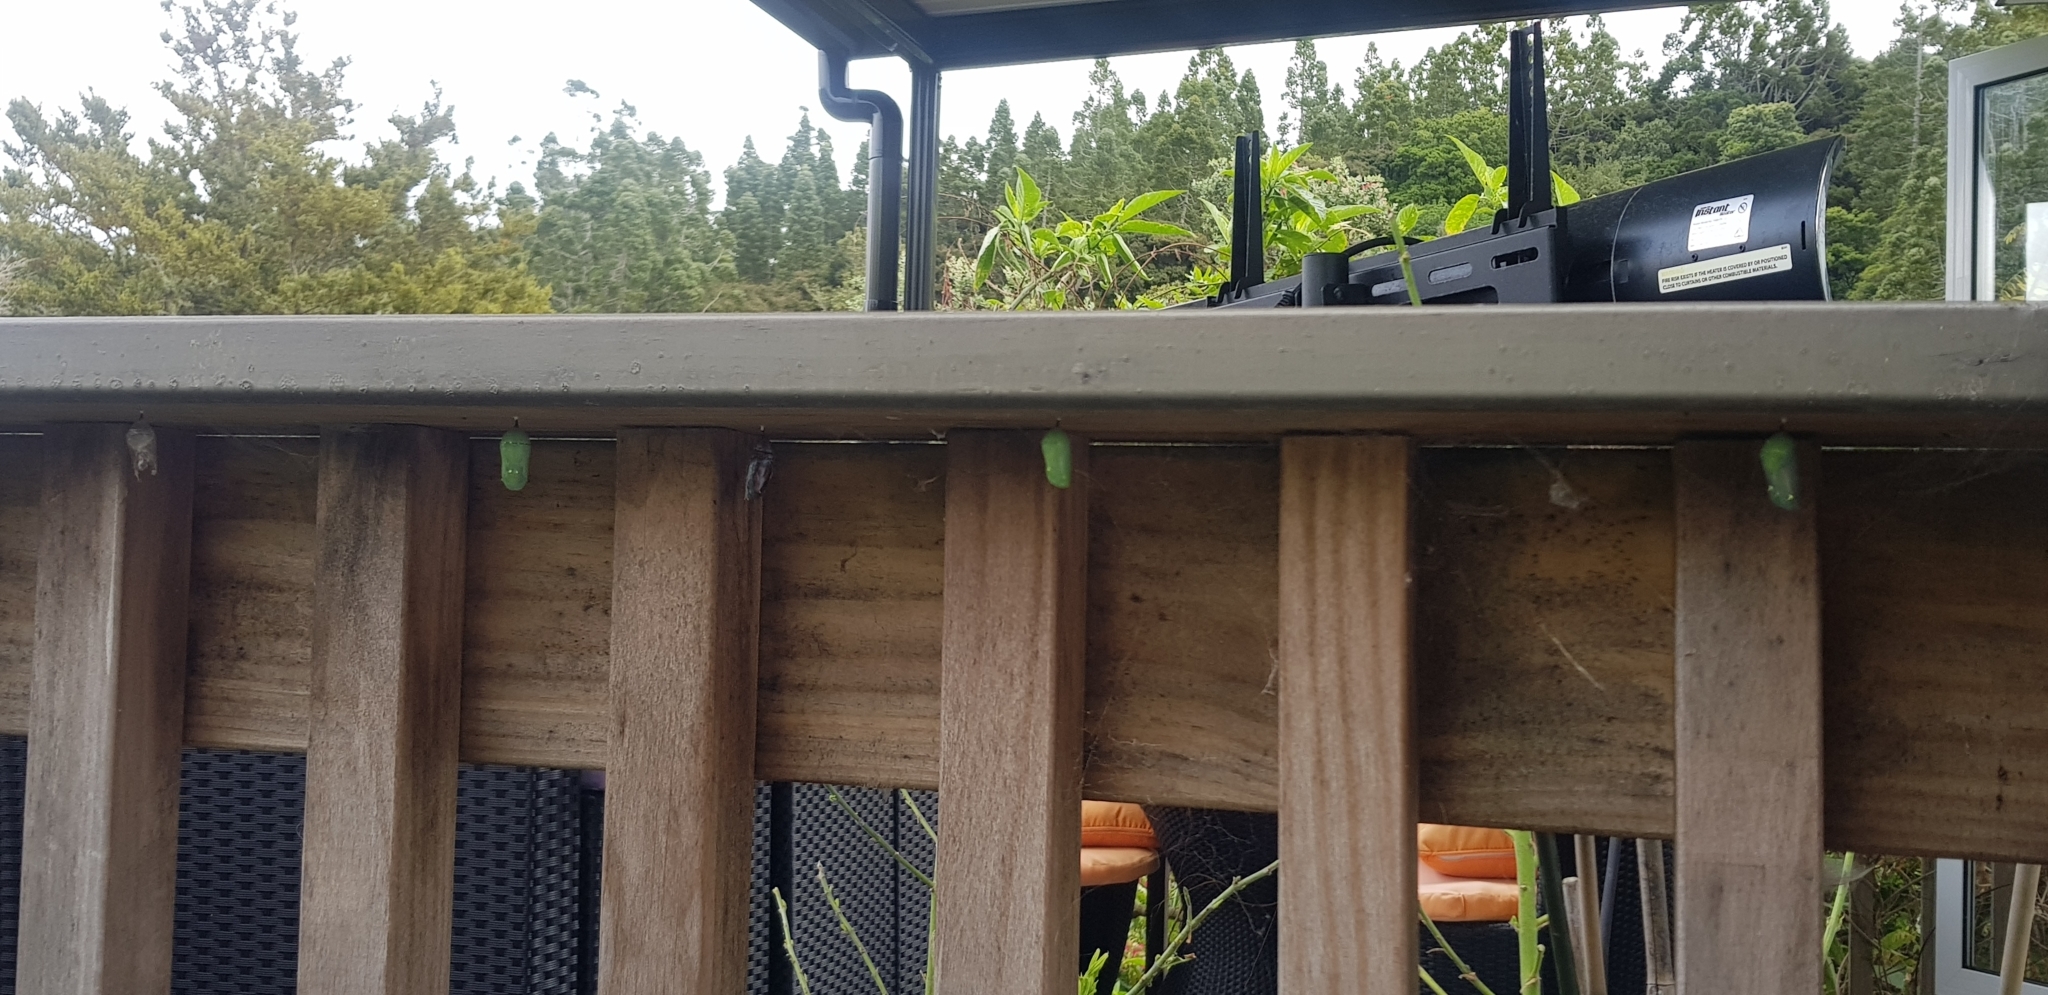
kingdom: Animalia
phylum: Arthropoda
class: Insecta
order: Lepidoptera
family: Nymphalidae
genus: Danaus
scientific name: Danaus plexippus
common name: Monarch
